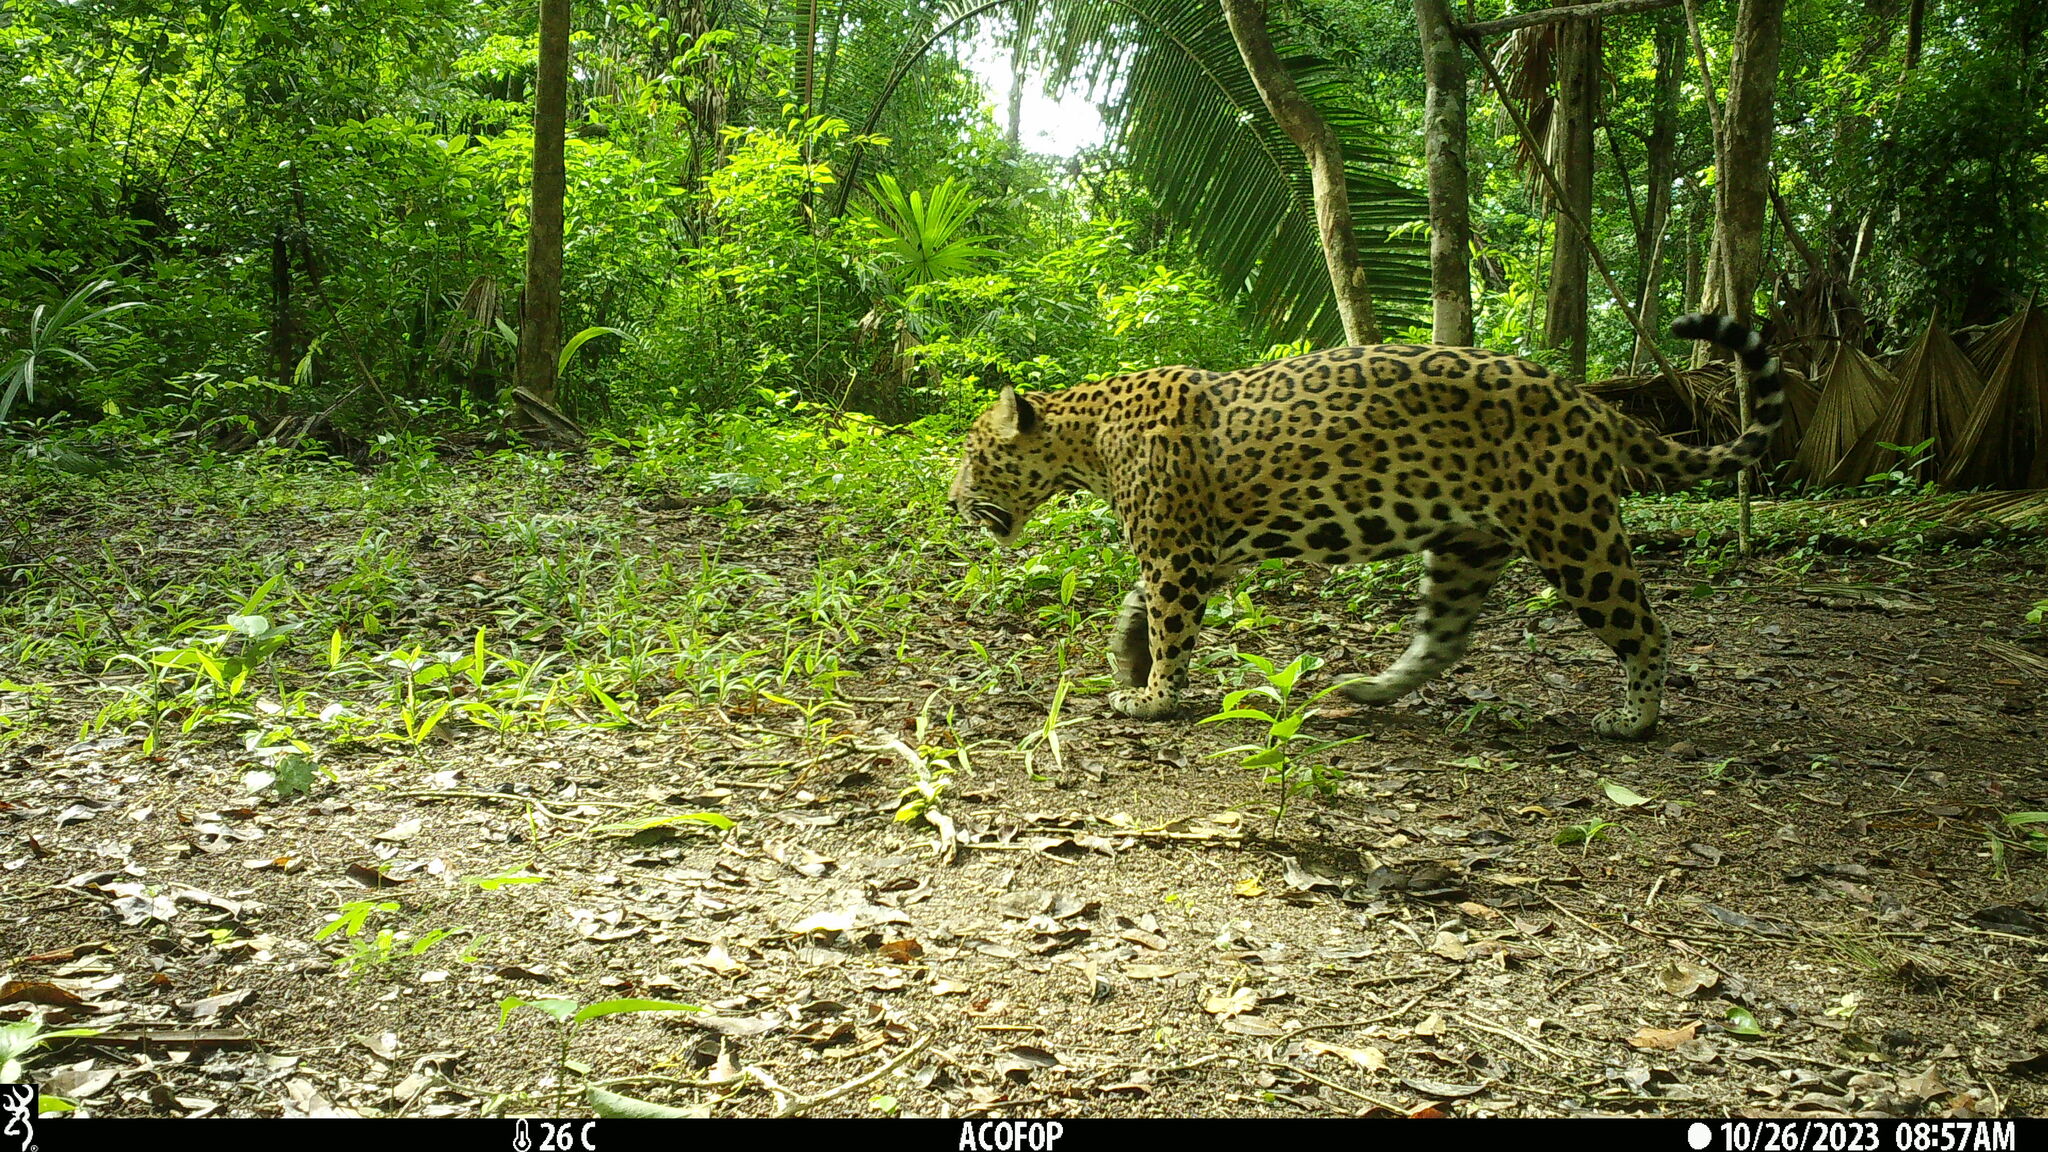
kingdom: Animalia
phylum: Chordata
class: Mammalia
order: Carnivora
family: Felidae
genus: Panthera
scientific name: Panthera onca
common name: Jaguar
